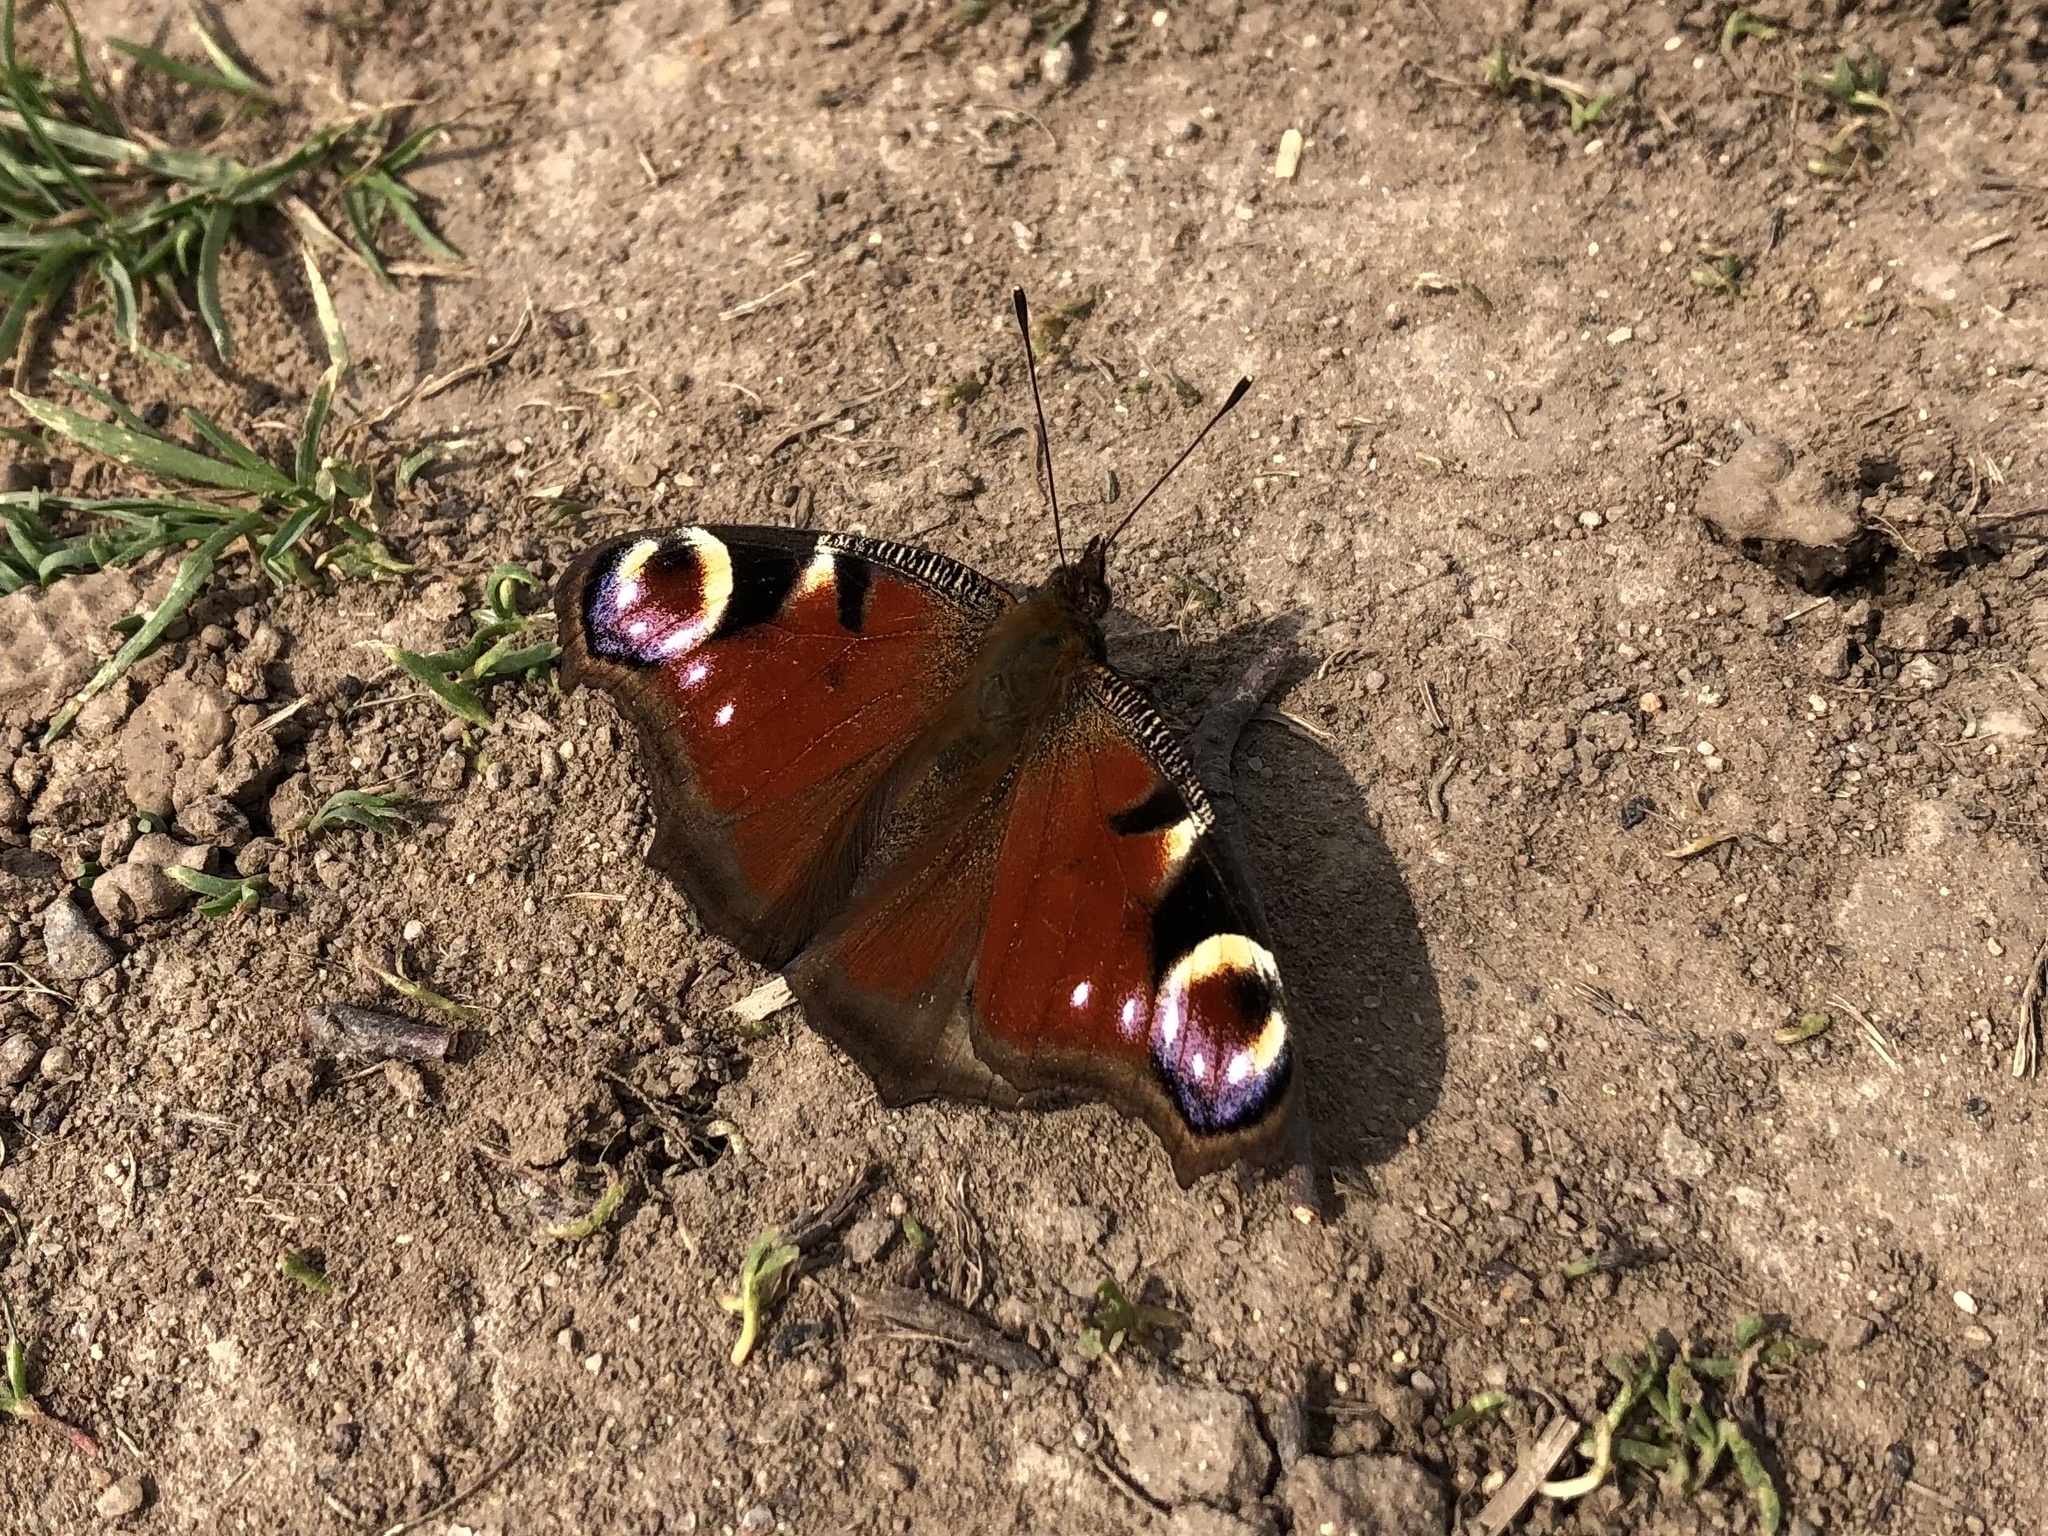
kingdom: Animalia
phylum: Arthropoda
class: Insecta
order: Lepidoptera
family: Nymphalidae
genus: Aglais
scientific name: Aglais io
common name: Peacock
